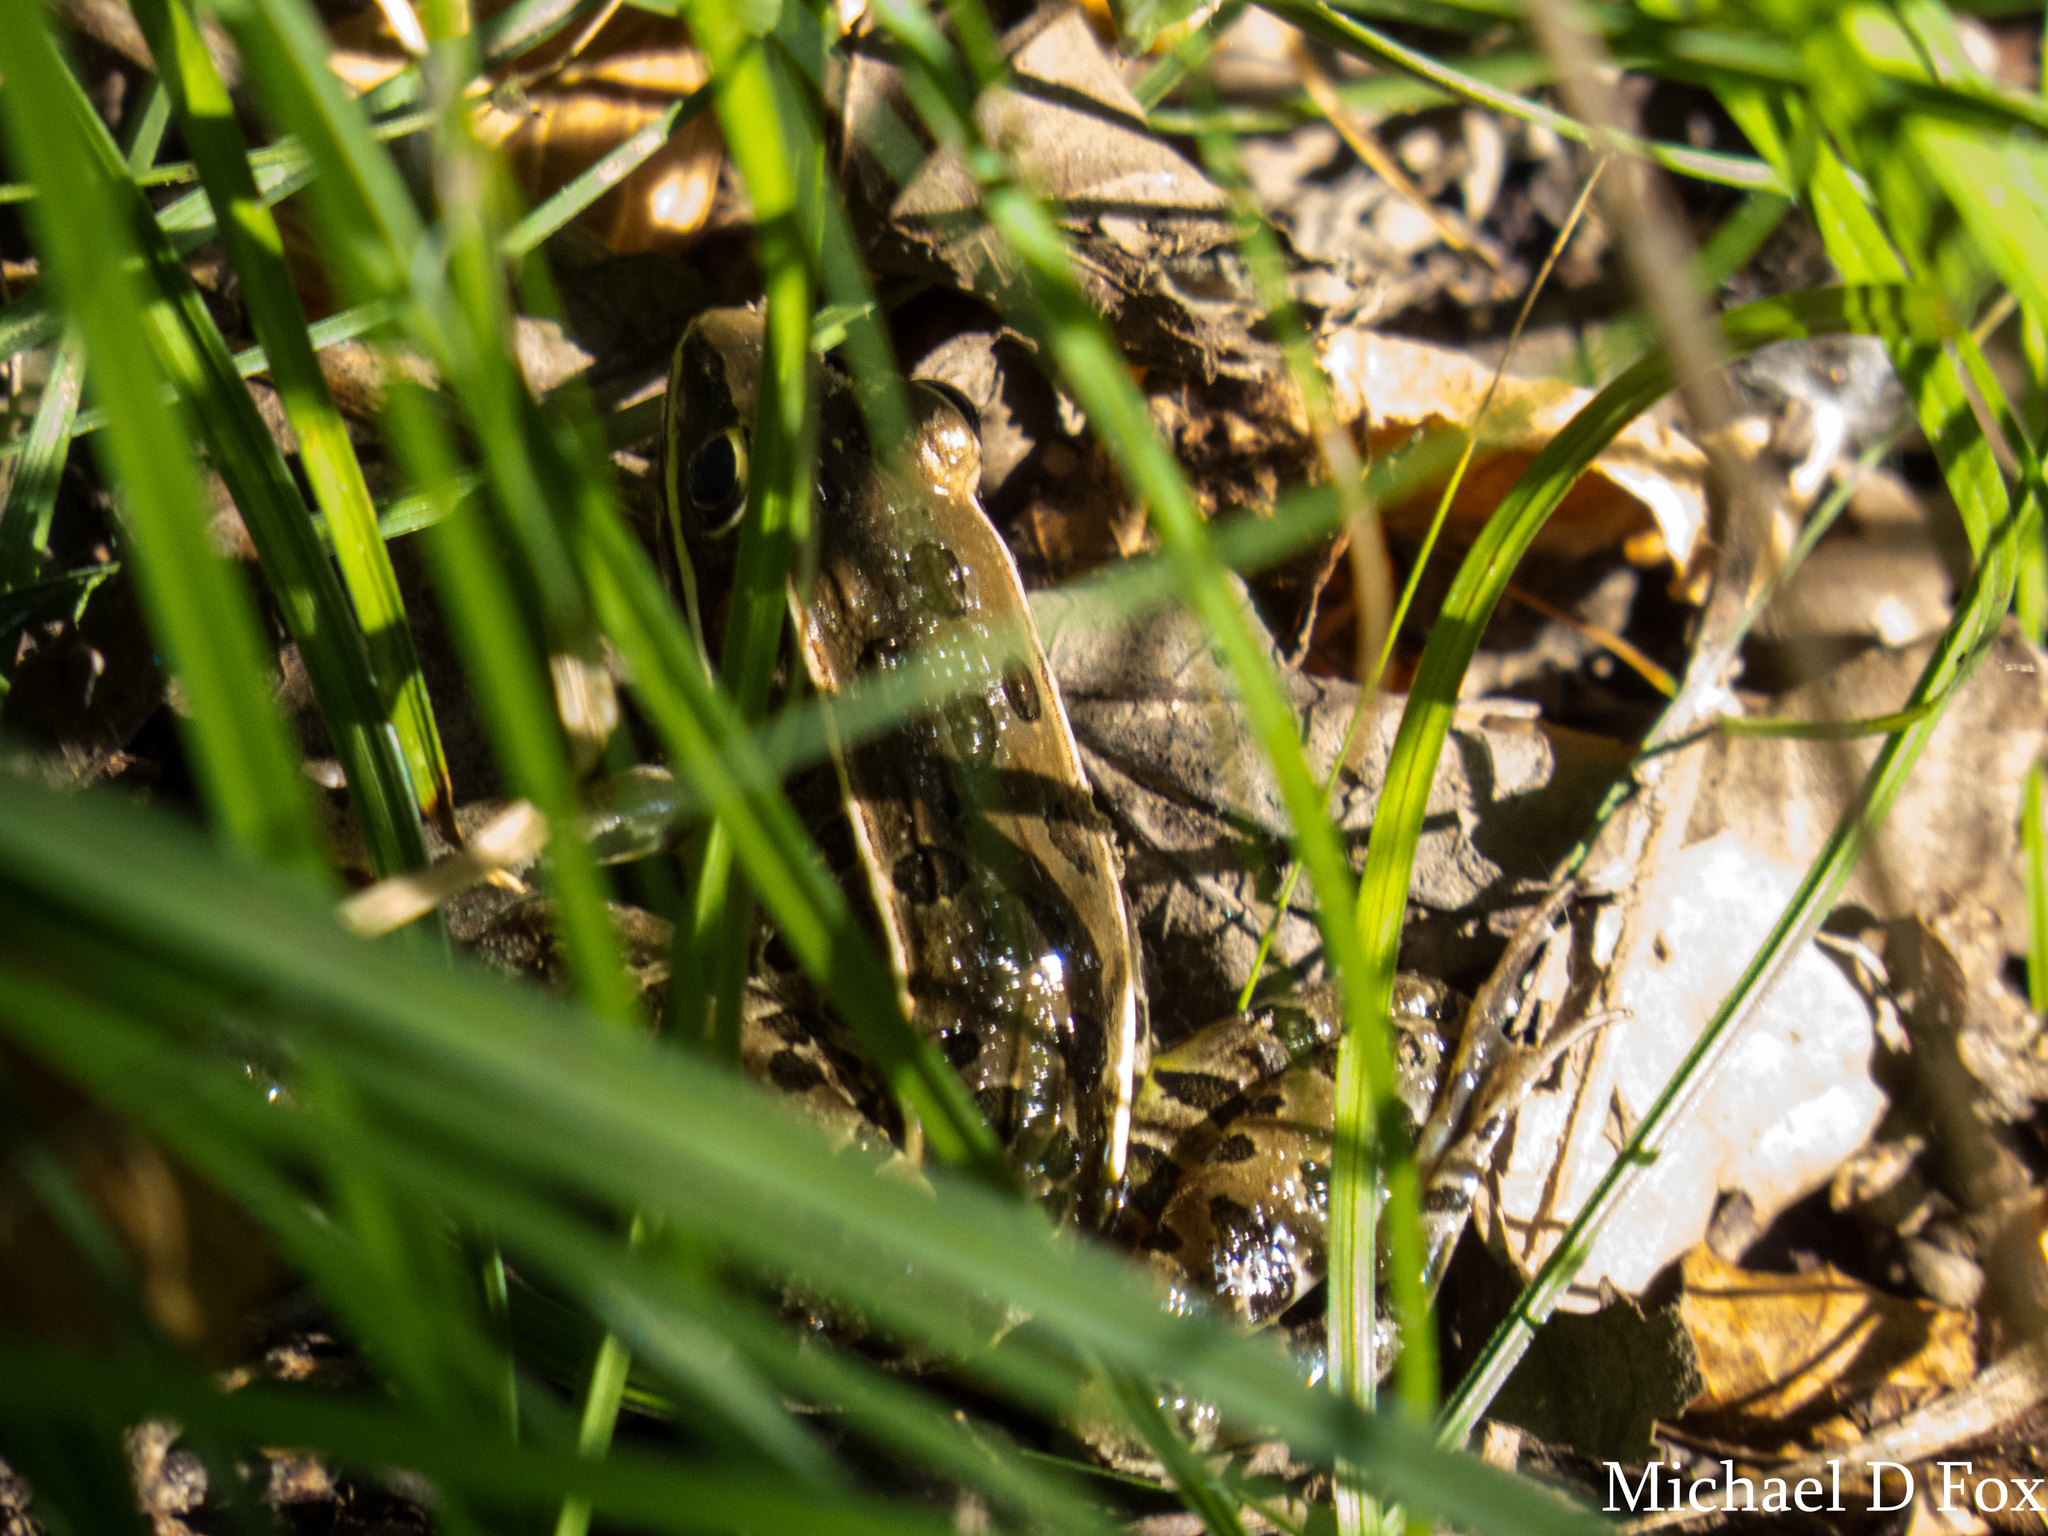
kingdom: Animalia
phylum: Chordata
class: Amphibia
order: Anura
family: Ranidae
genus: Lithobates
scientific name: Lithobates sphenocephalus
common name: Southern leopard frog
